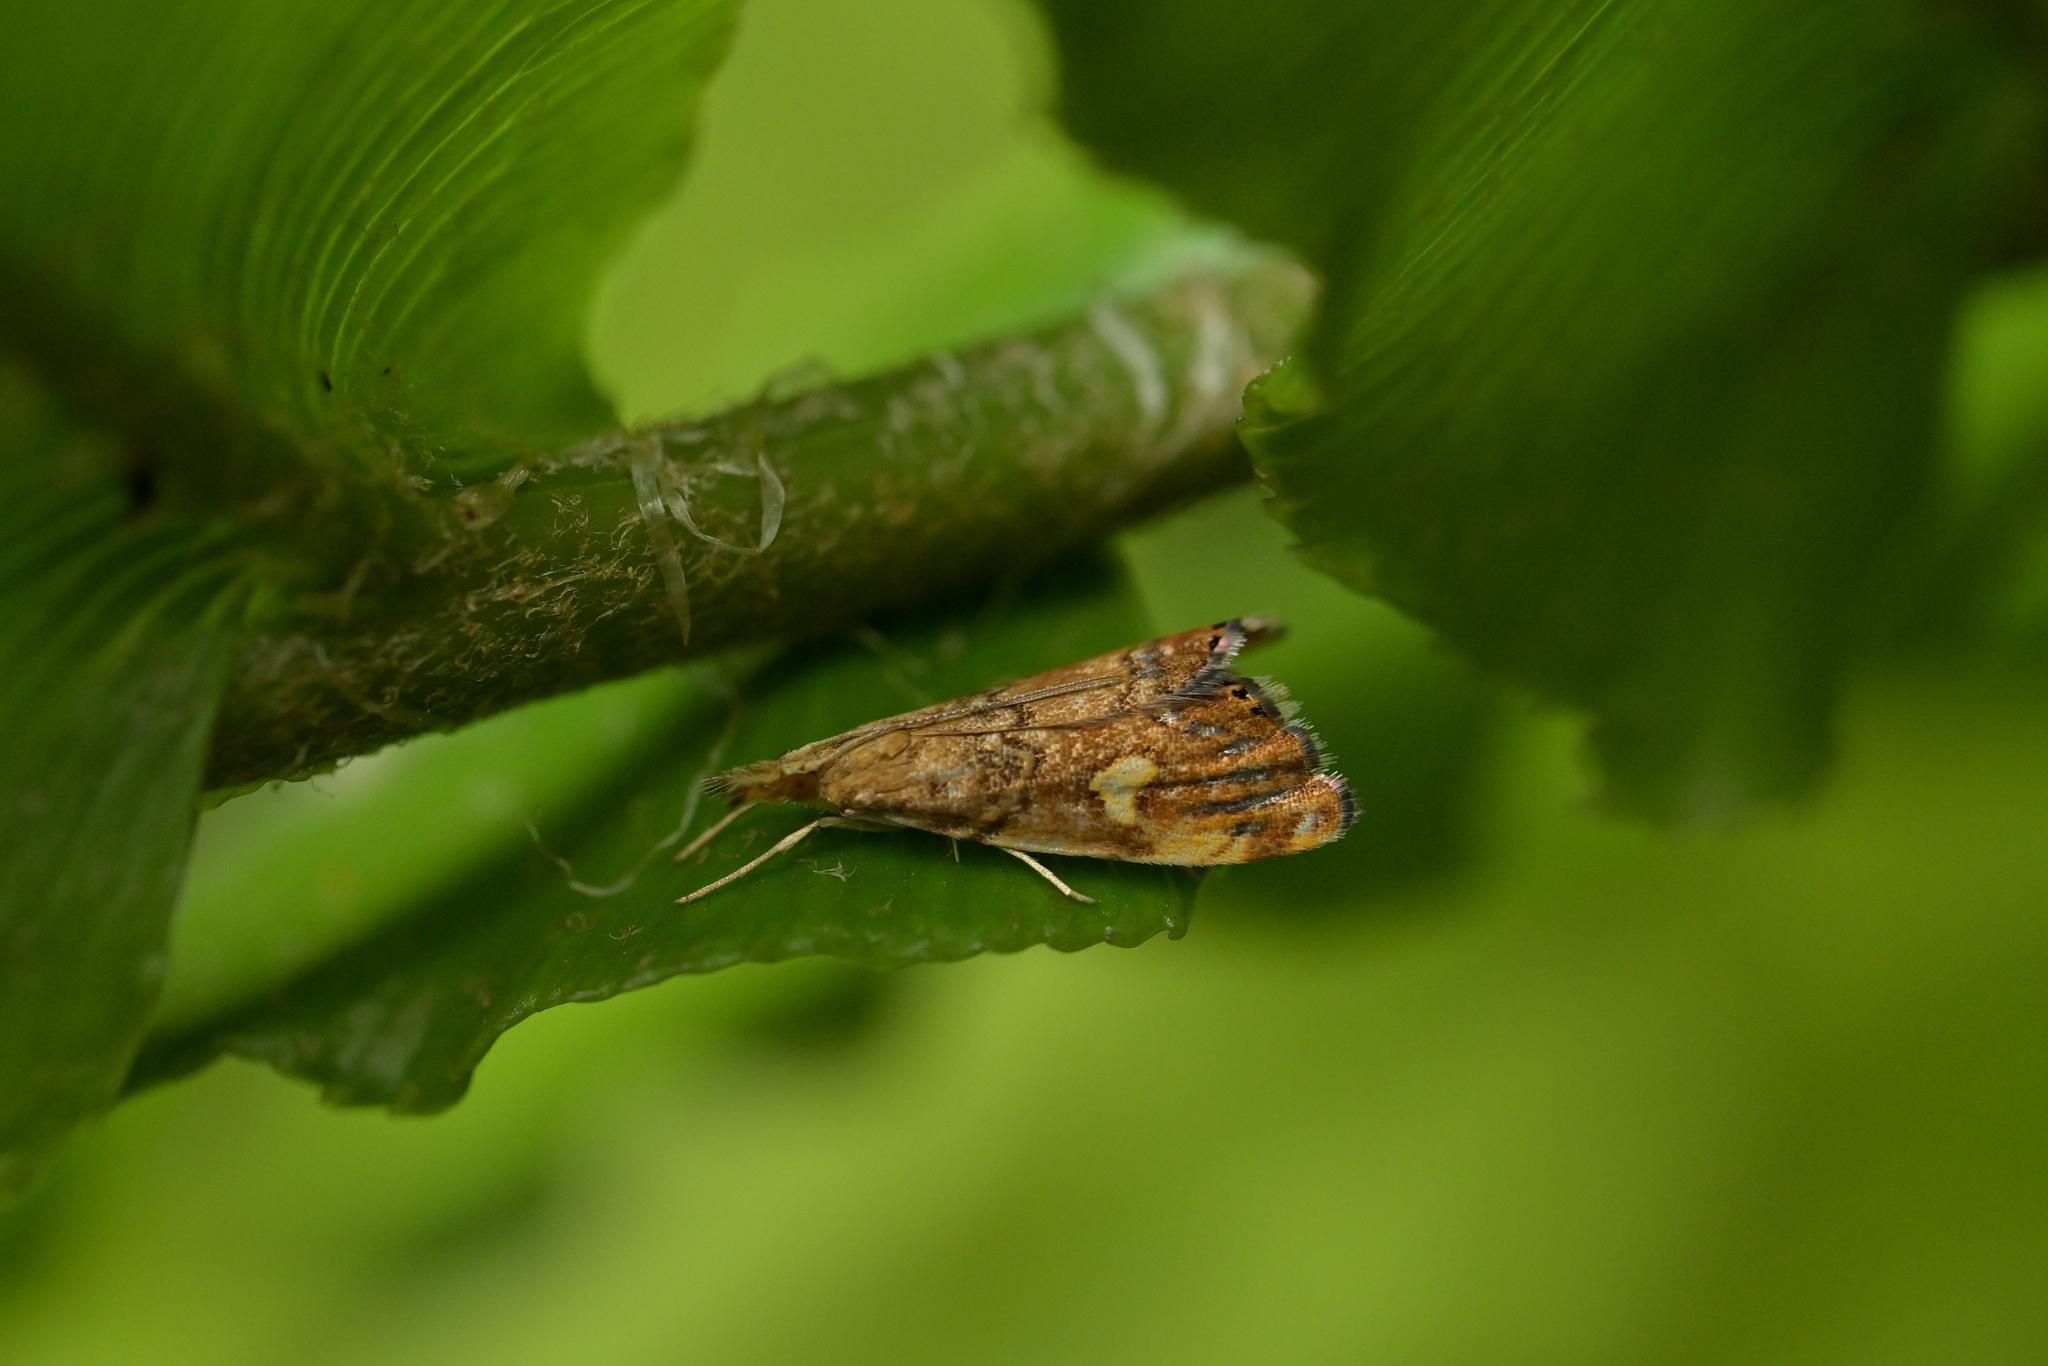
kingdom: Animalia
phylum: Arthropoda
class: Insecta
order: Lepidoptera
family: Crambidae
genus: Glaucocharis
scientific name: Glaucocharis leucoxantha
